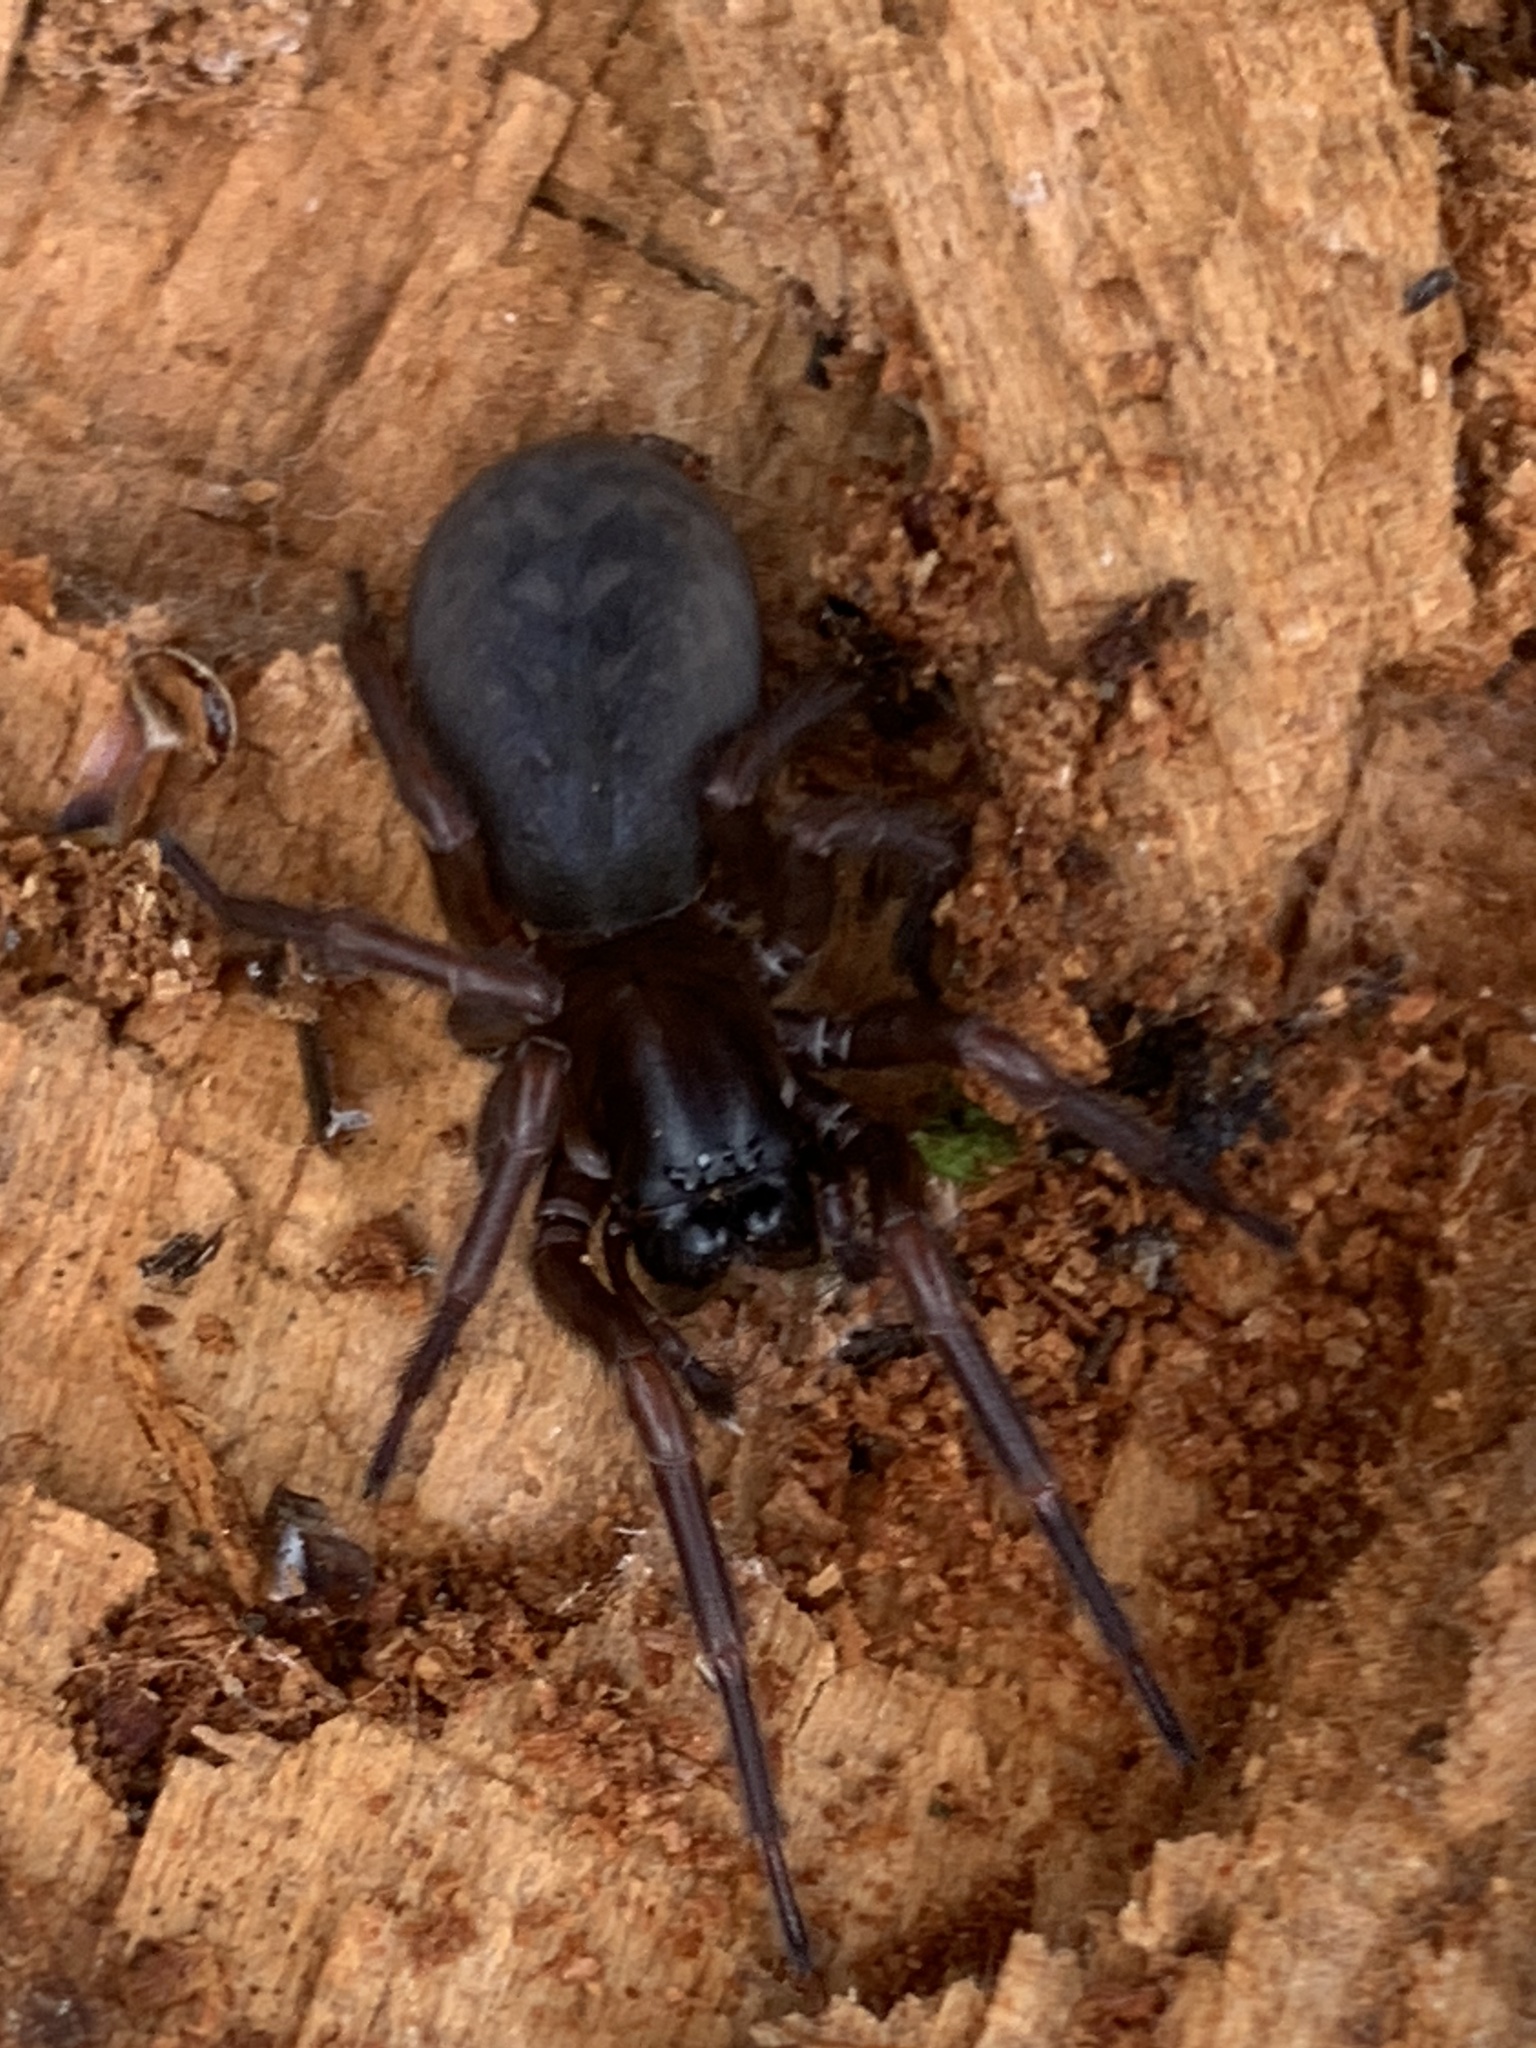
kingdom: Animalia
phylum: Arthropoda
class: Arachnida
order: Araneae
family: Agelenidae
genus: Coelotes
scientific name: Coelotes terrestris
